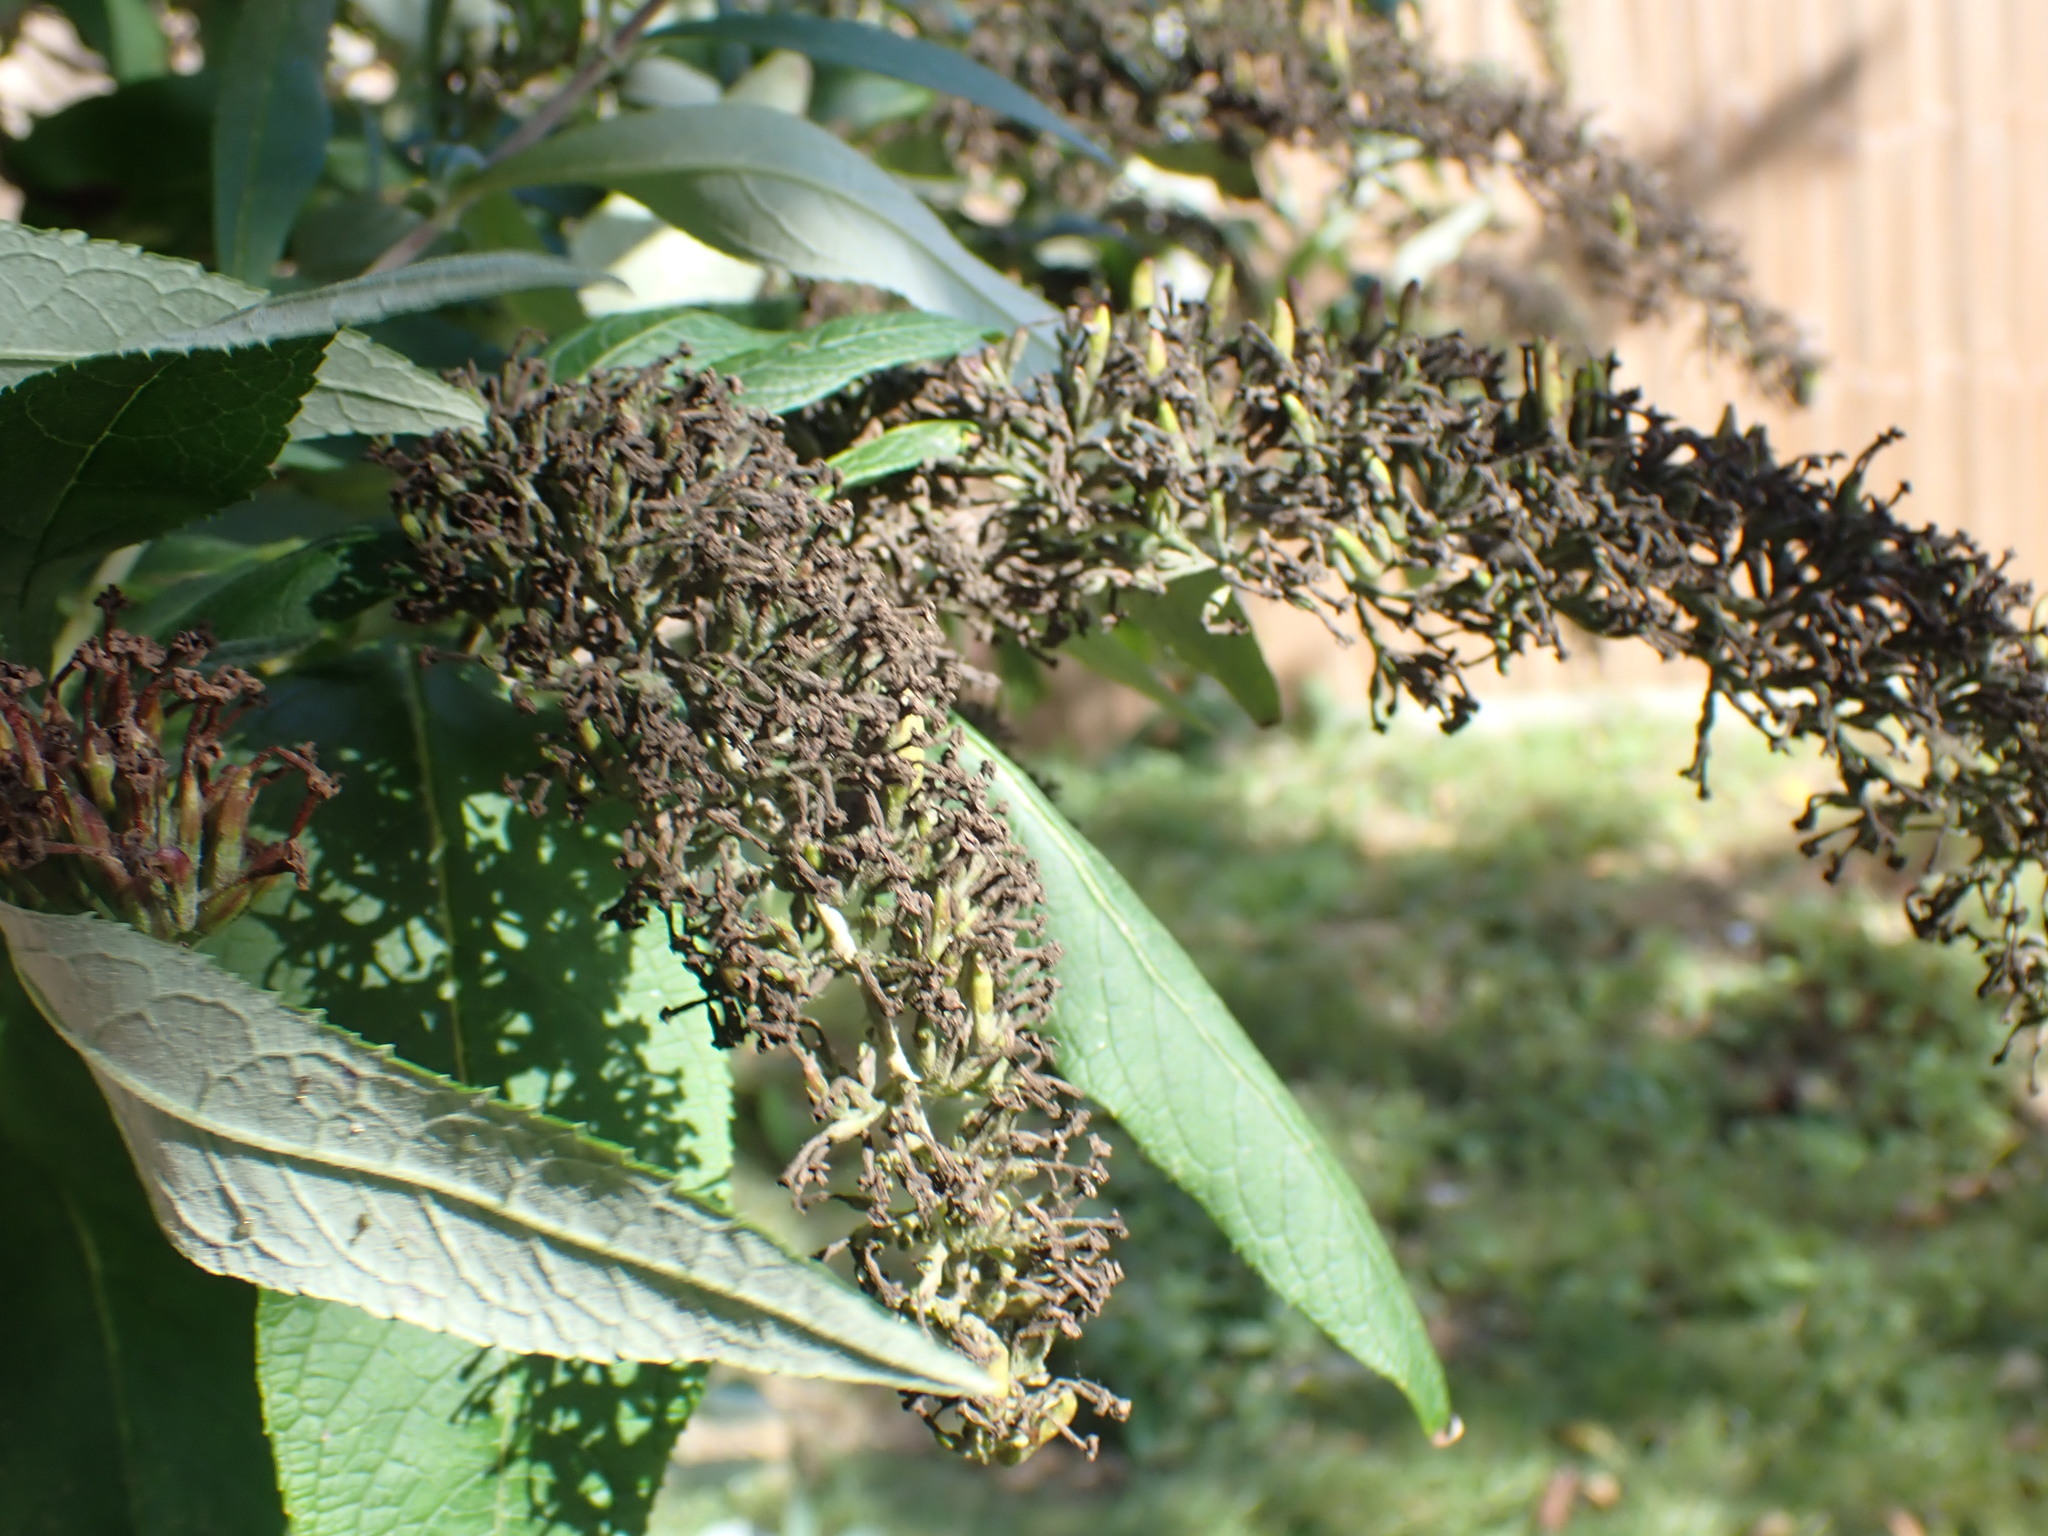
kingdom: Plantae
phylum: Tracheophyta
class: Magnoliopsida
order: Lamiales
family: Scrophulariaceae
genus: Buddleja
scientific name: Buddleja davidii
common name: Butterfly-bush
